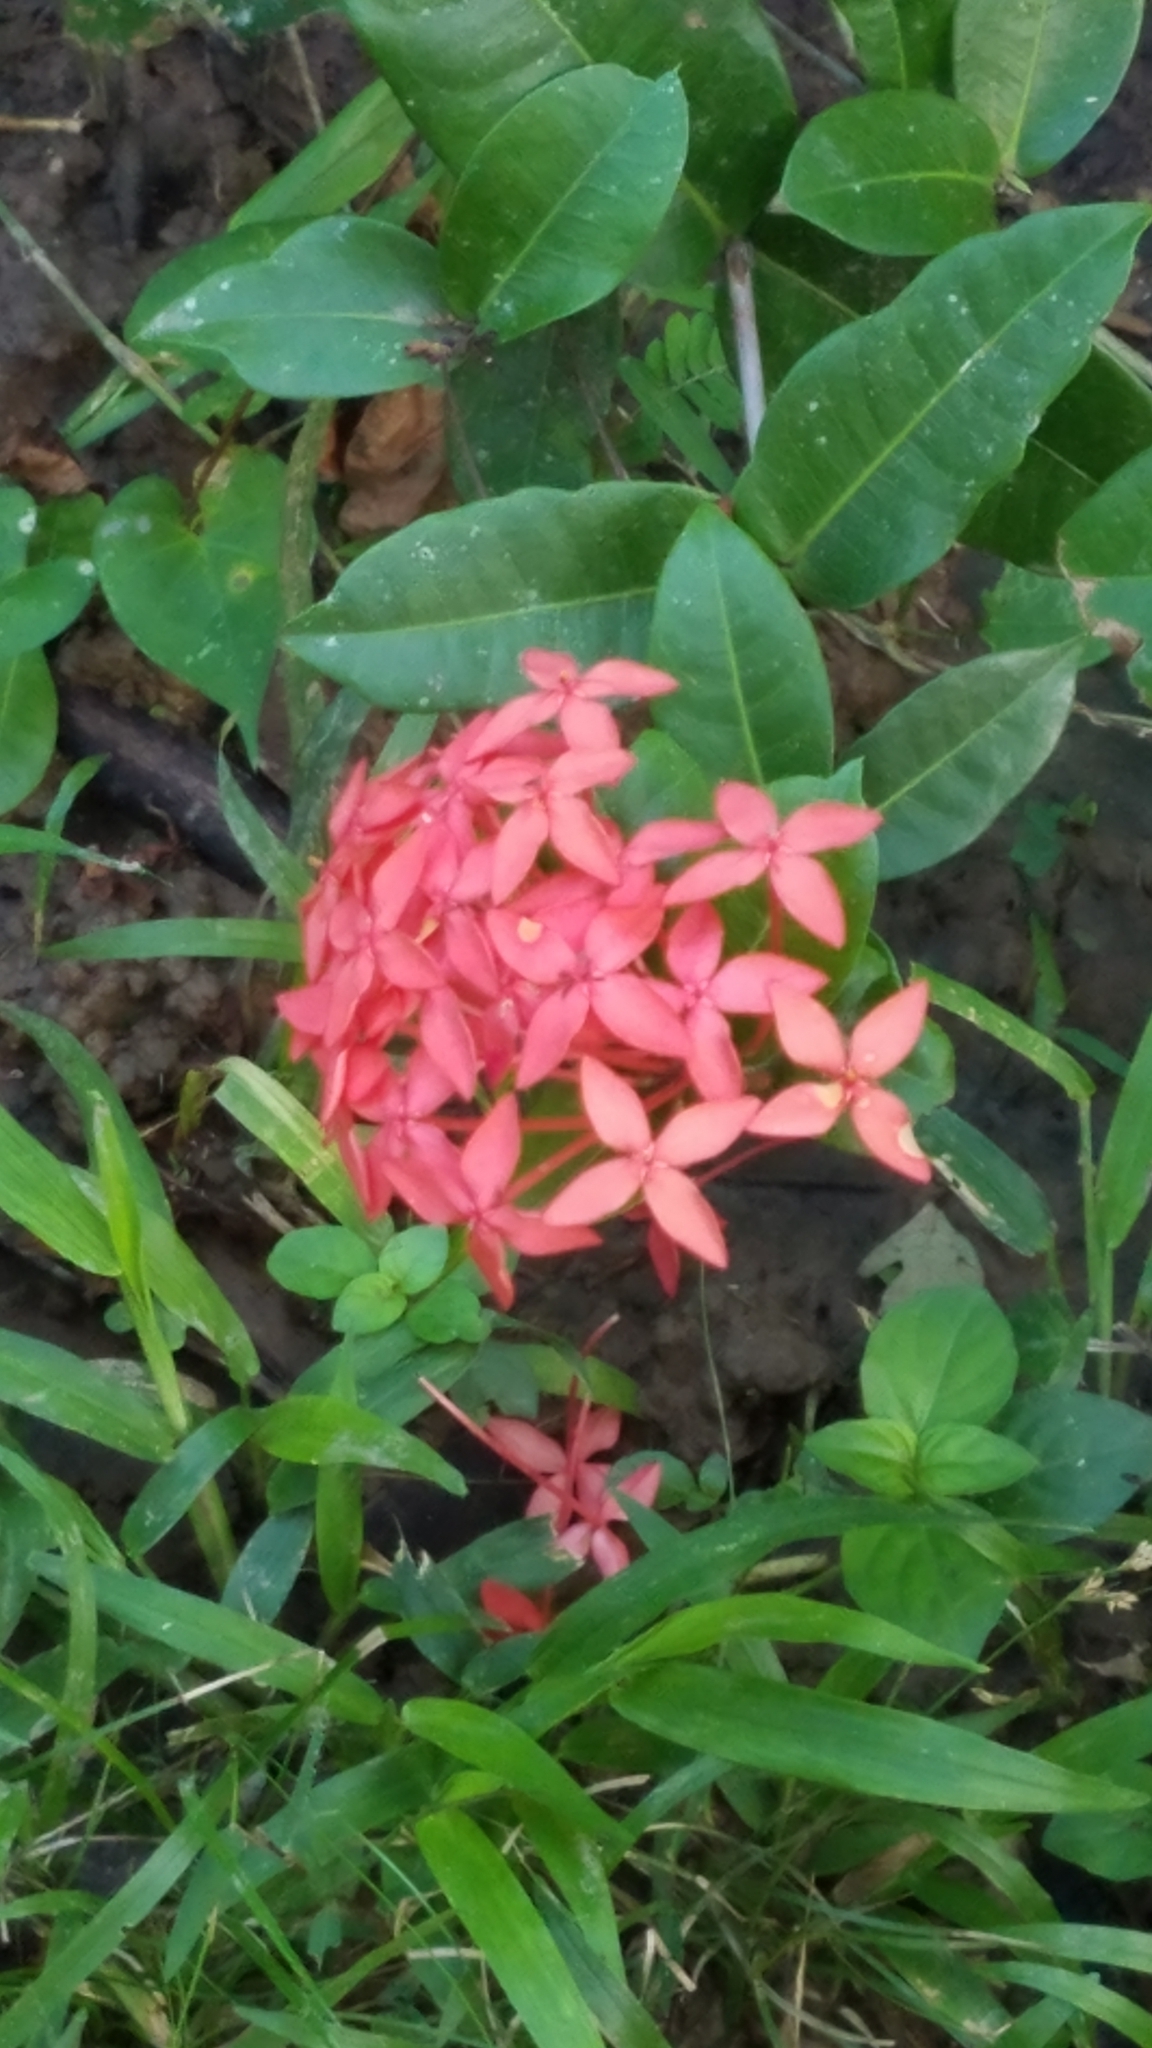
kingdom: Plantae
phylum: Tracheophyta
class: Magnoliopsida
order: Gentianales
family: Rubiaceae
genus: Ixora
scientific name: Ixora coccinea
